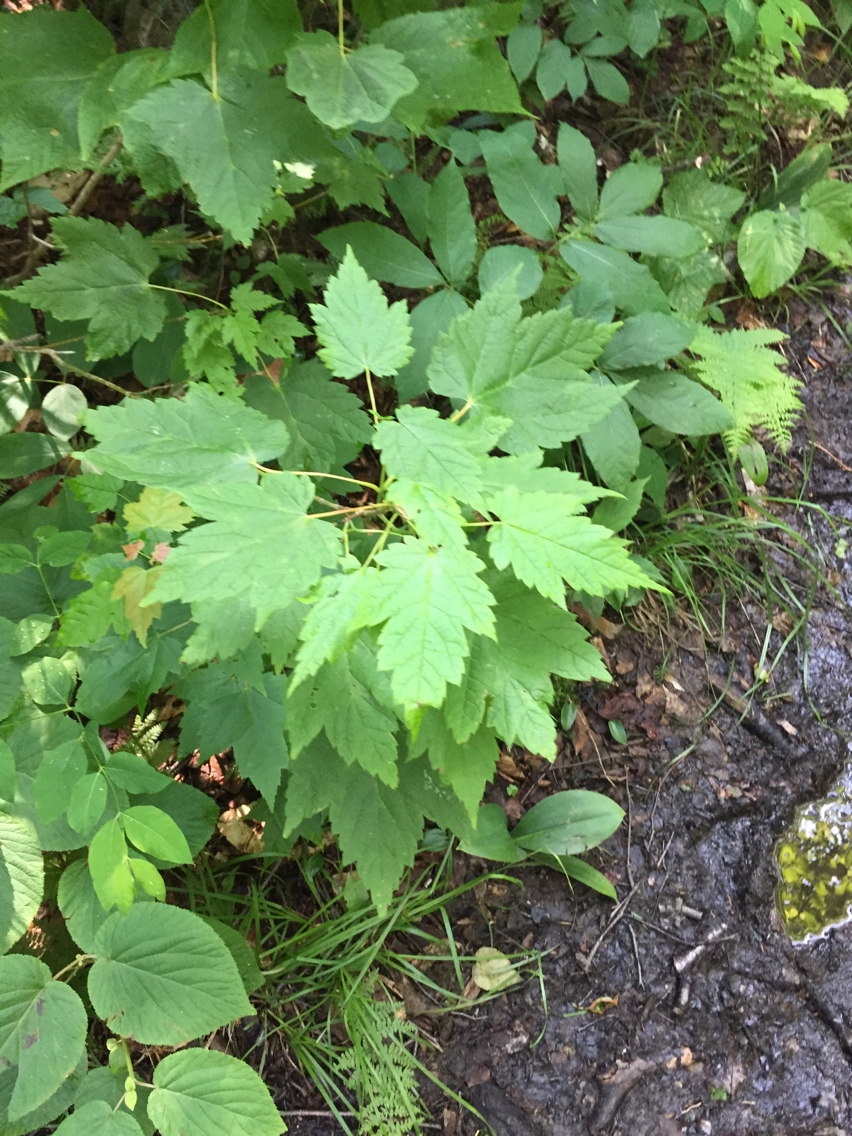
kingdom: Plantae
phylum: Tracheophyta
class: Magnoliopsida
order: Sapindales
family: Sapindaceae
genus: Acer
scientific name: Acer spicatum
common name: Mountain maple
